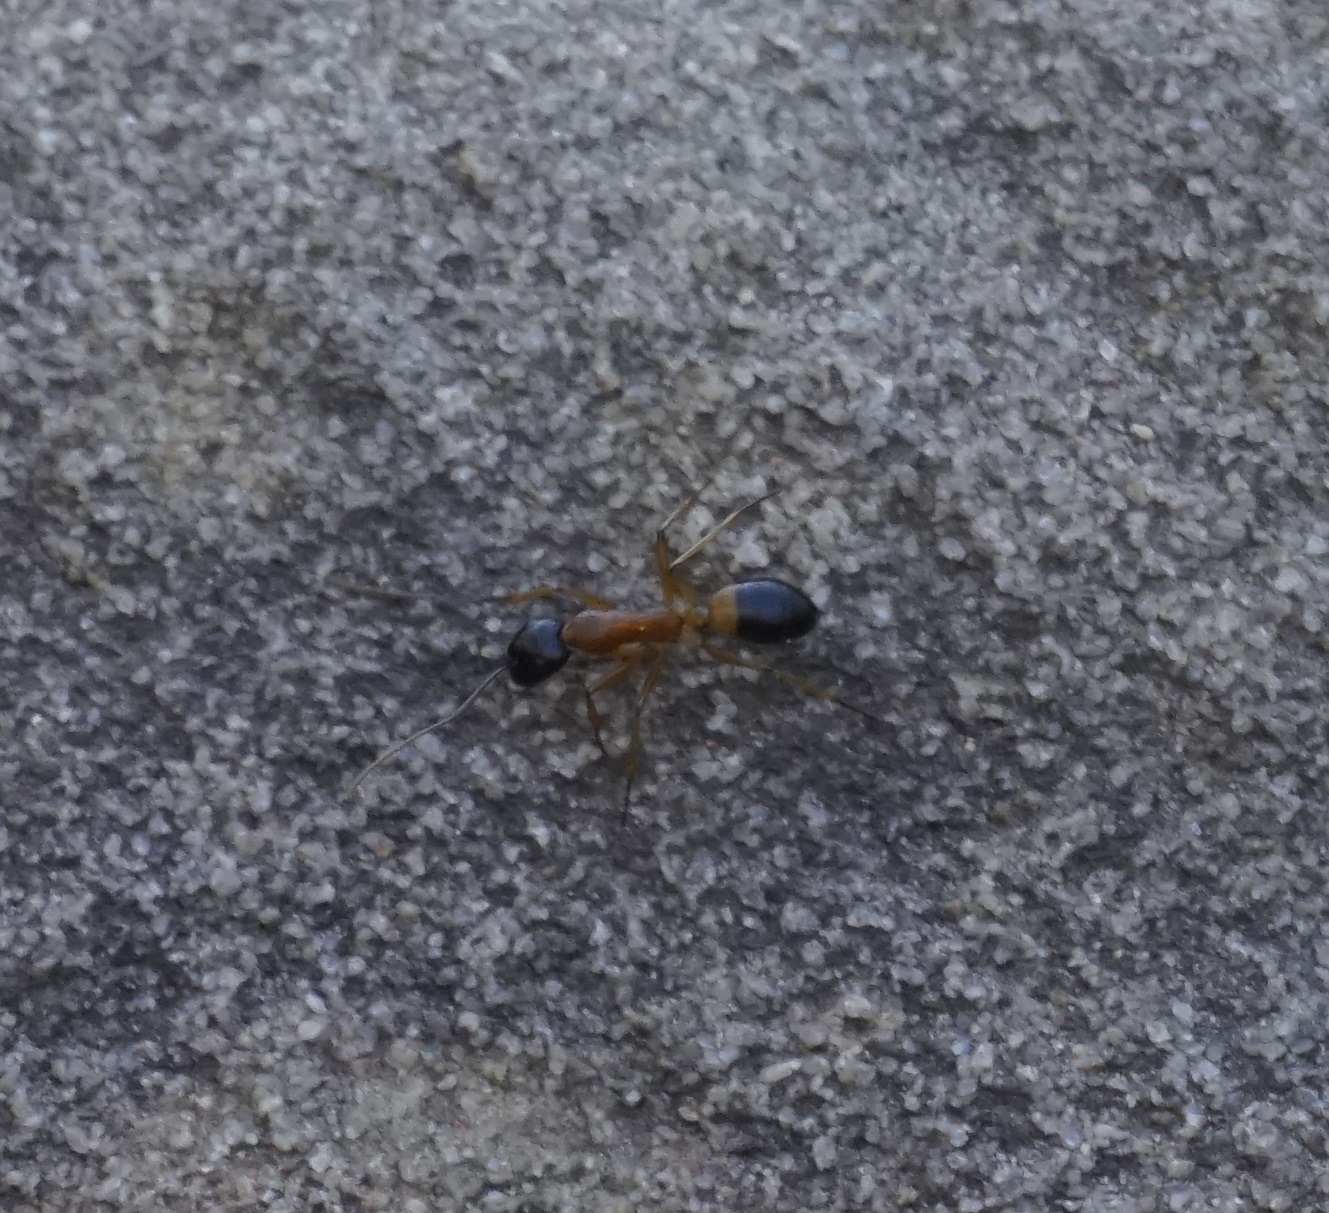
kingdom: Animalia
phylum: Arthropoda
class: Insecta
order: Hymenoptera
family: Formicidae
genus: Camponotus
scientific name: Camponotus consobrinus
